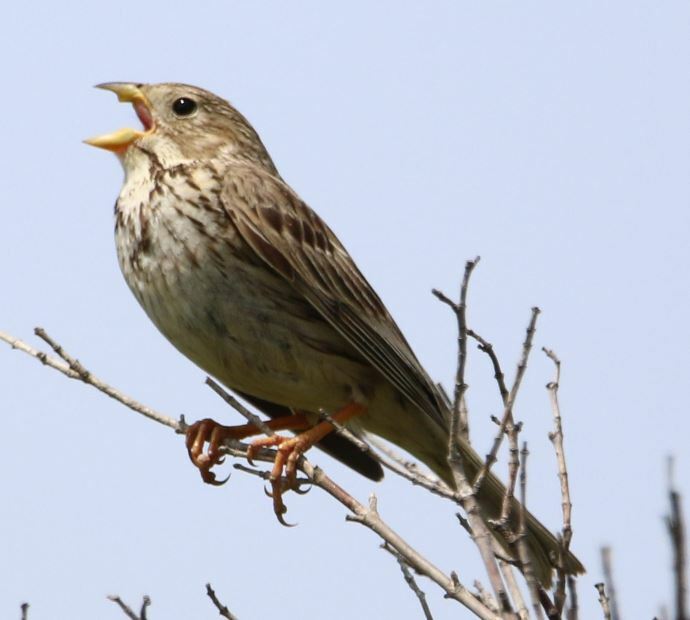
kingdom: Animalia
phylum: Chordata
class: Aves
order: Passeriformes
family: Emberizidae
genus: Emberiza
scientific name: Emberiza calandra
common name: Corn bunting
